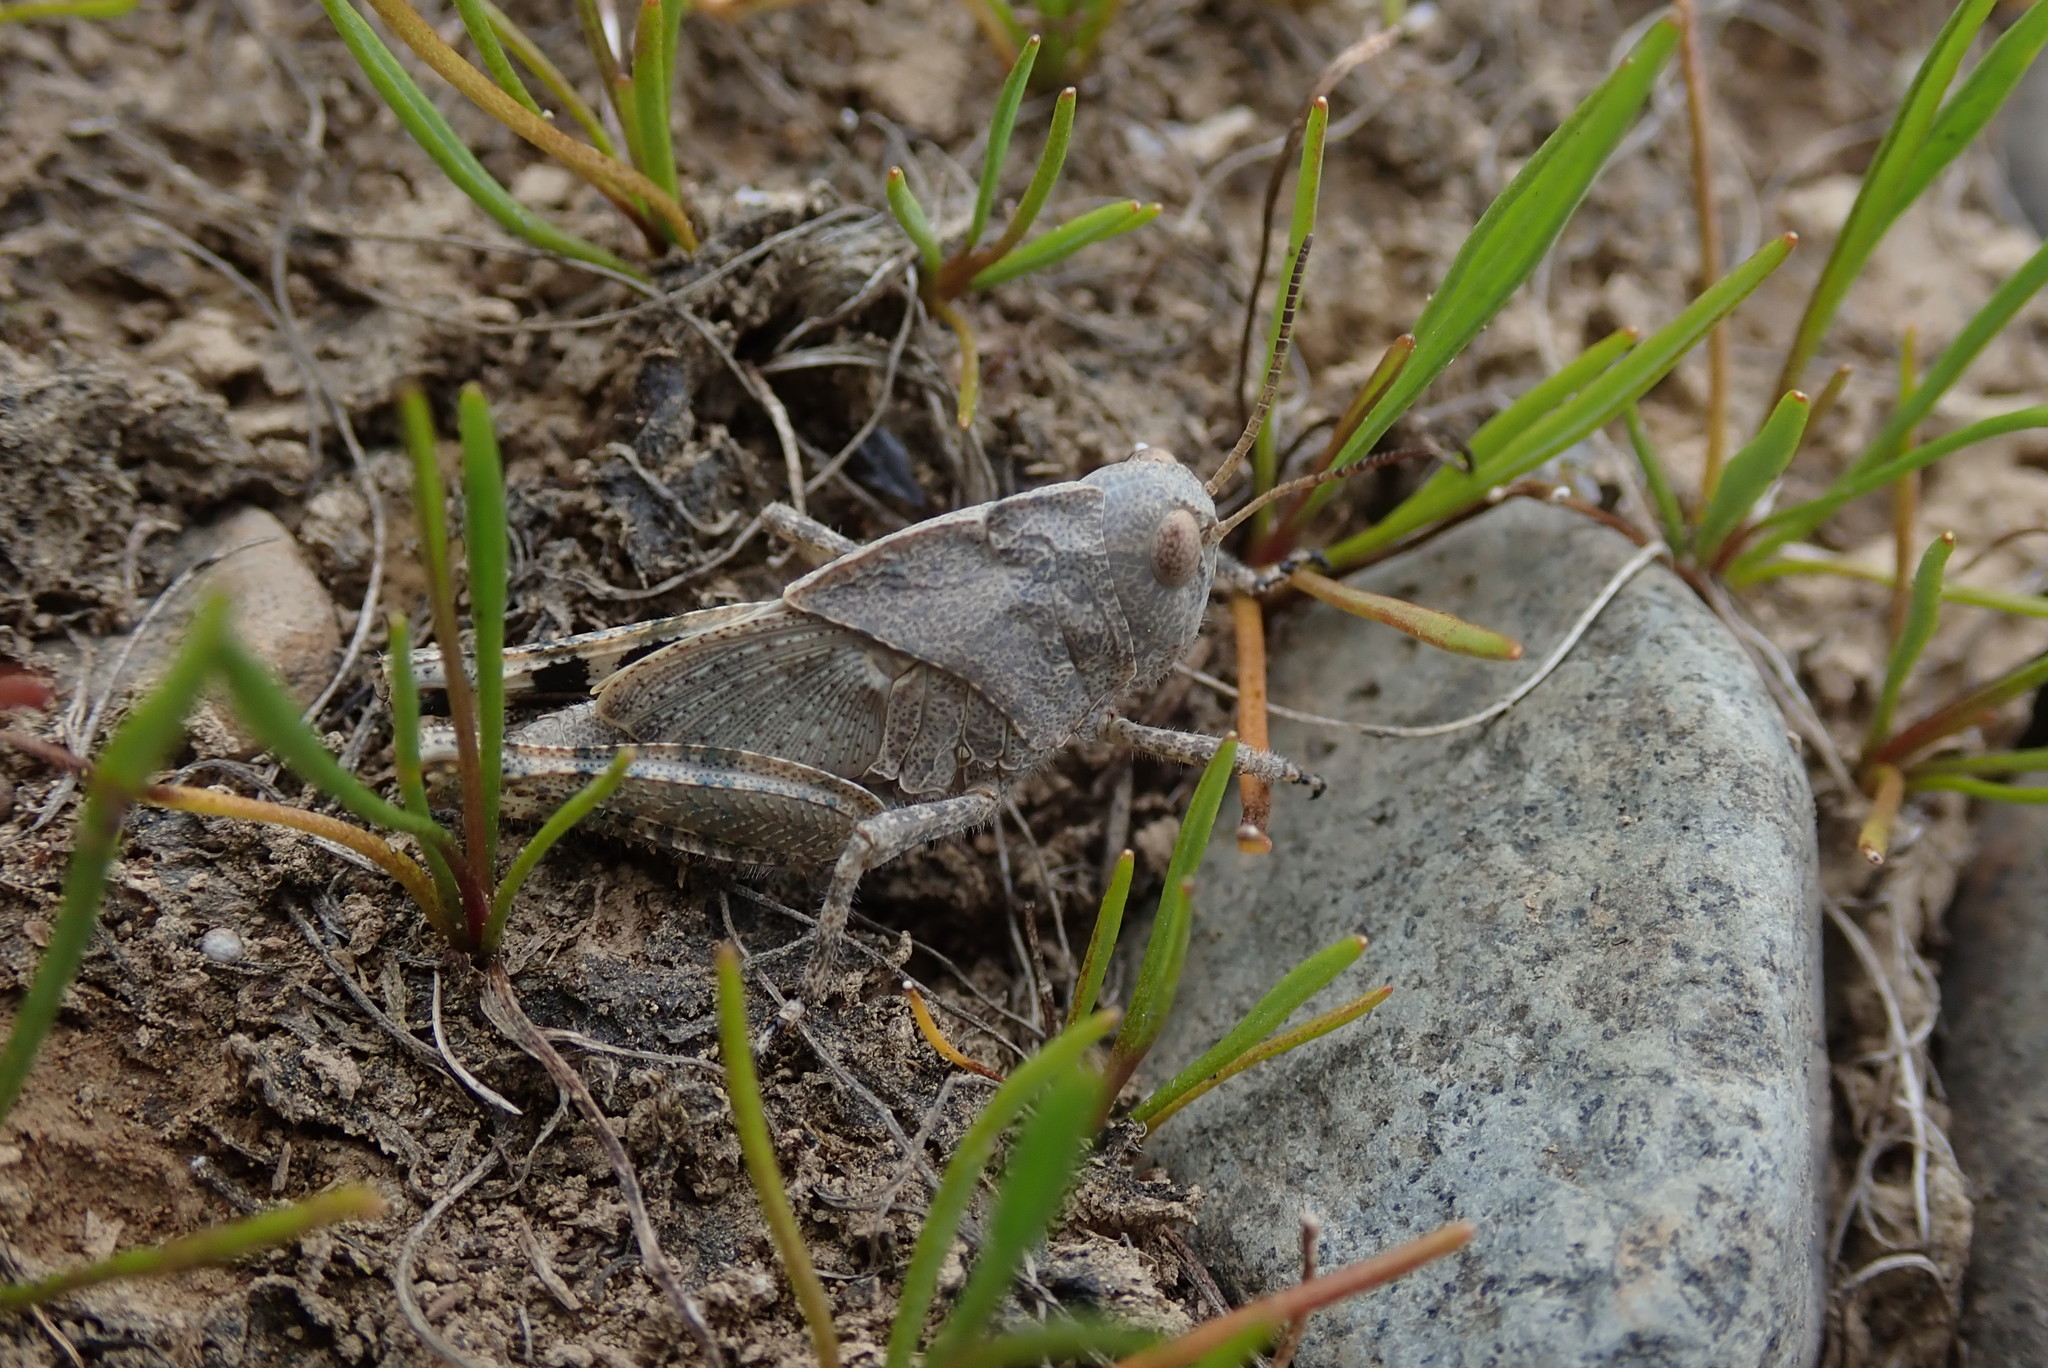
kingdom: Animalia
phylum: Arthropoda
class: Insecta
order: Orthoptera
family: Acrididae
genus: Dissosteira
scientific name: Dissosteira carolina
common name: Carolina grasshopper
